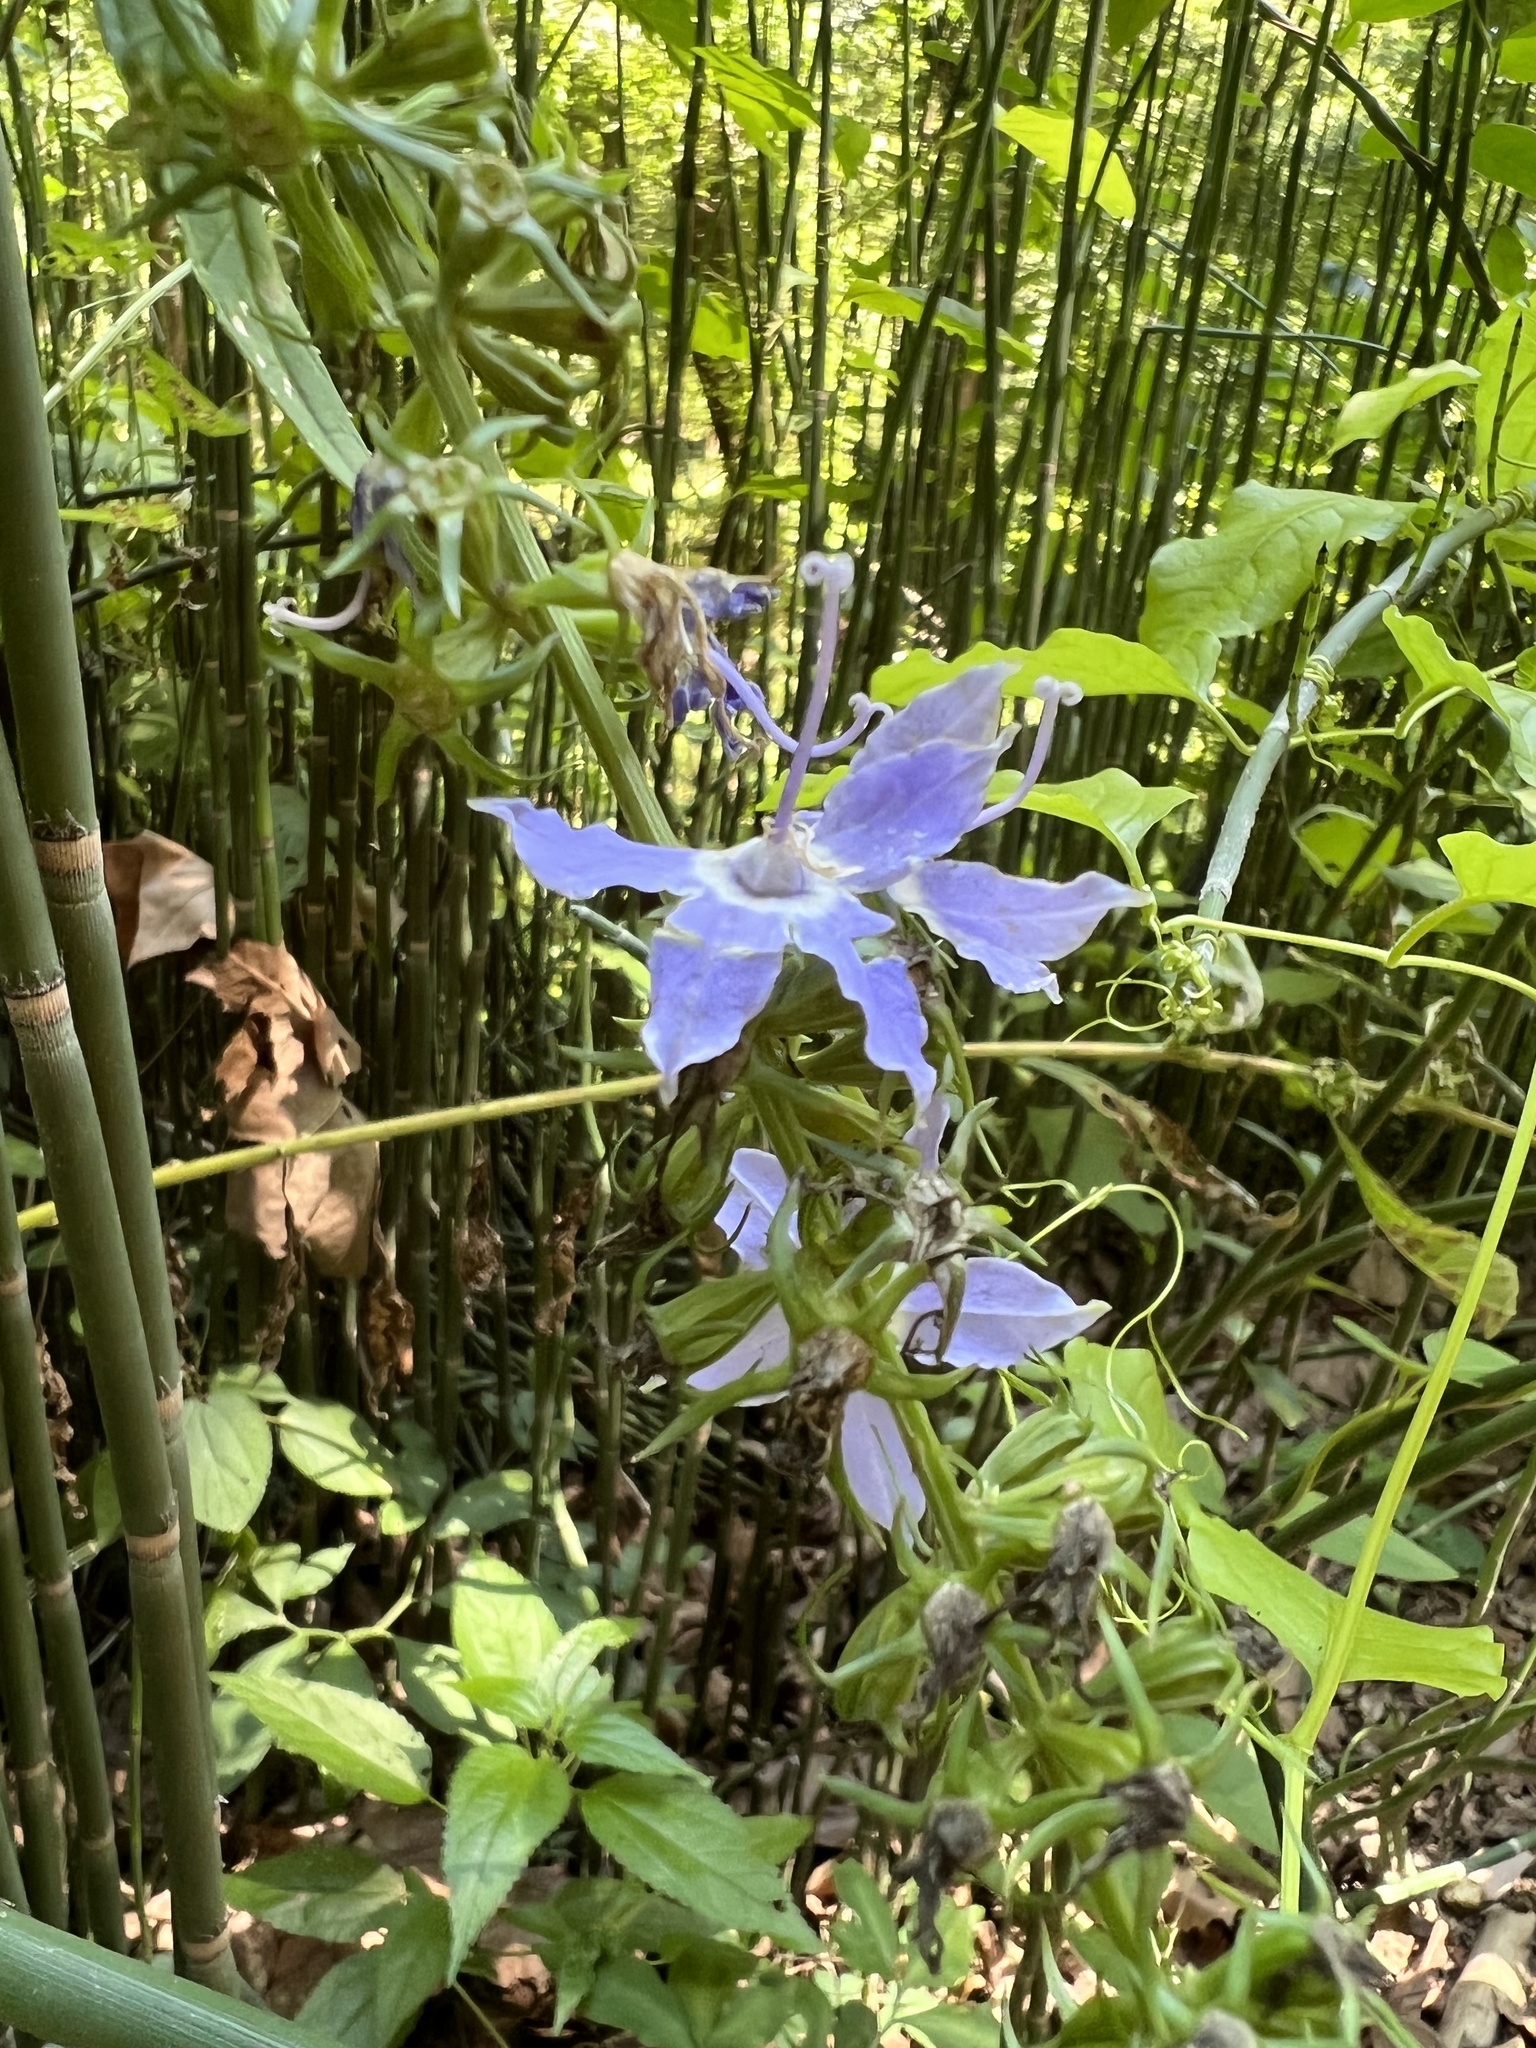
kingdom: Plantae
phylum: Tracheophyta
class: Magnoliopsida
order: Asterales
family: Campanulaceae
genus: Campanulastrum
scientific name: Campanulastrum americanum
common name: American bellflower
